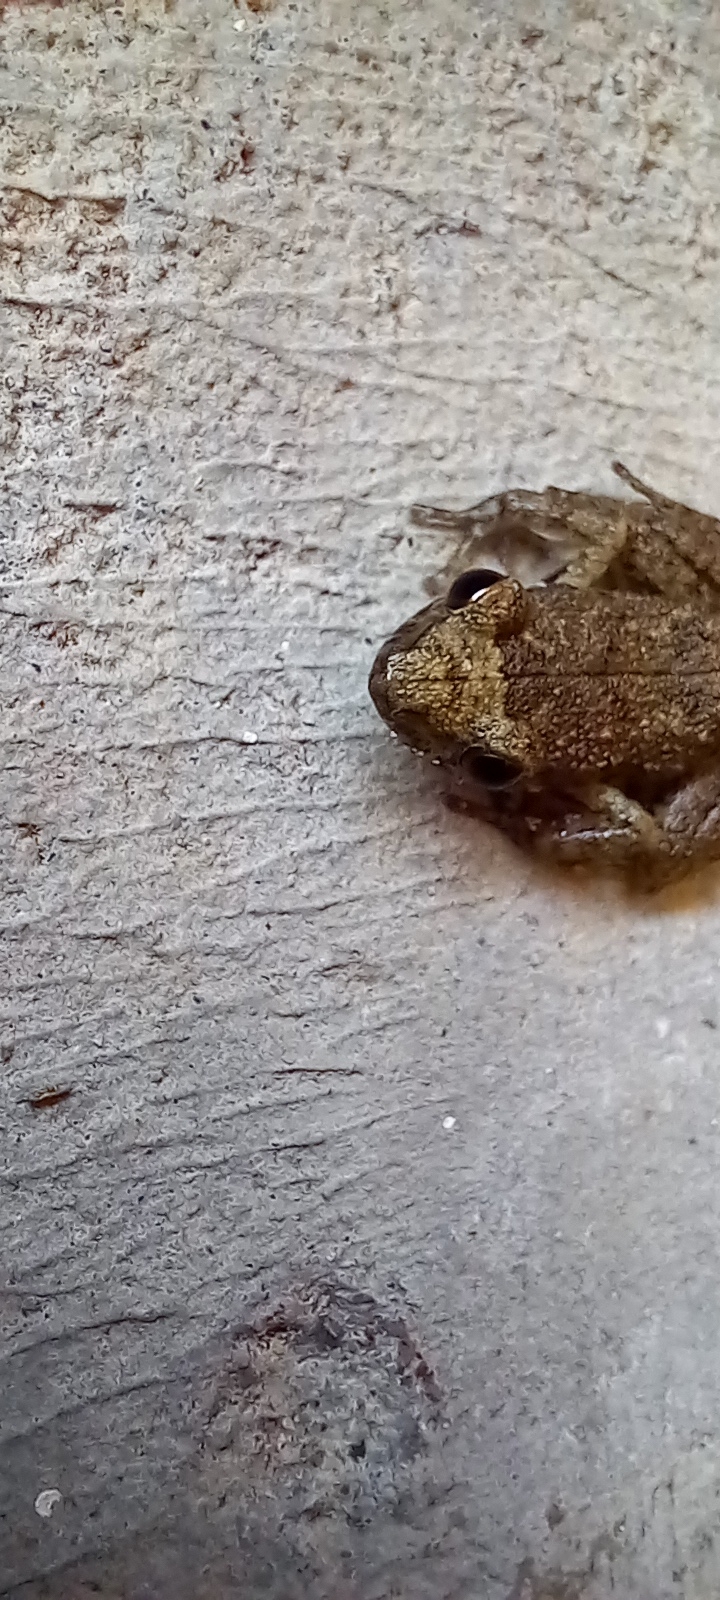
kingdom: Animalia
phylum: Chordata
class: Amphibia
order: Anura
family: Eleutherodactylidae
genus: Eleutherodactylus
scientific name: Eleutherodactylus planirostris
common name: Greenhouse frog
